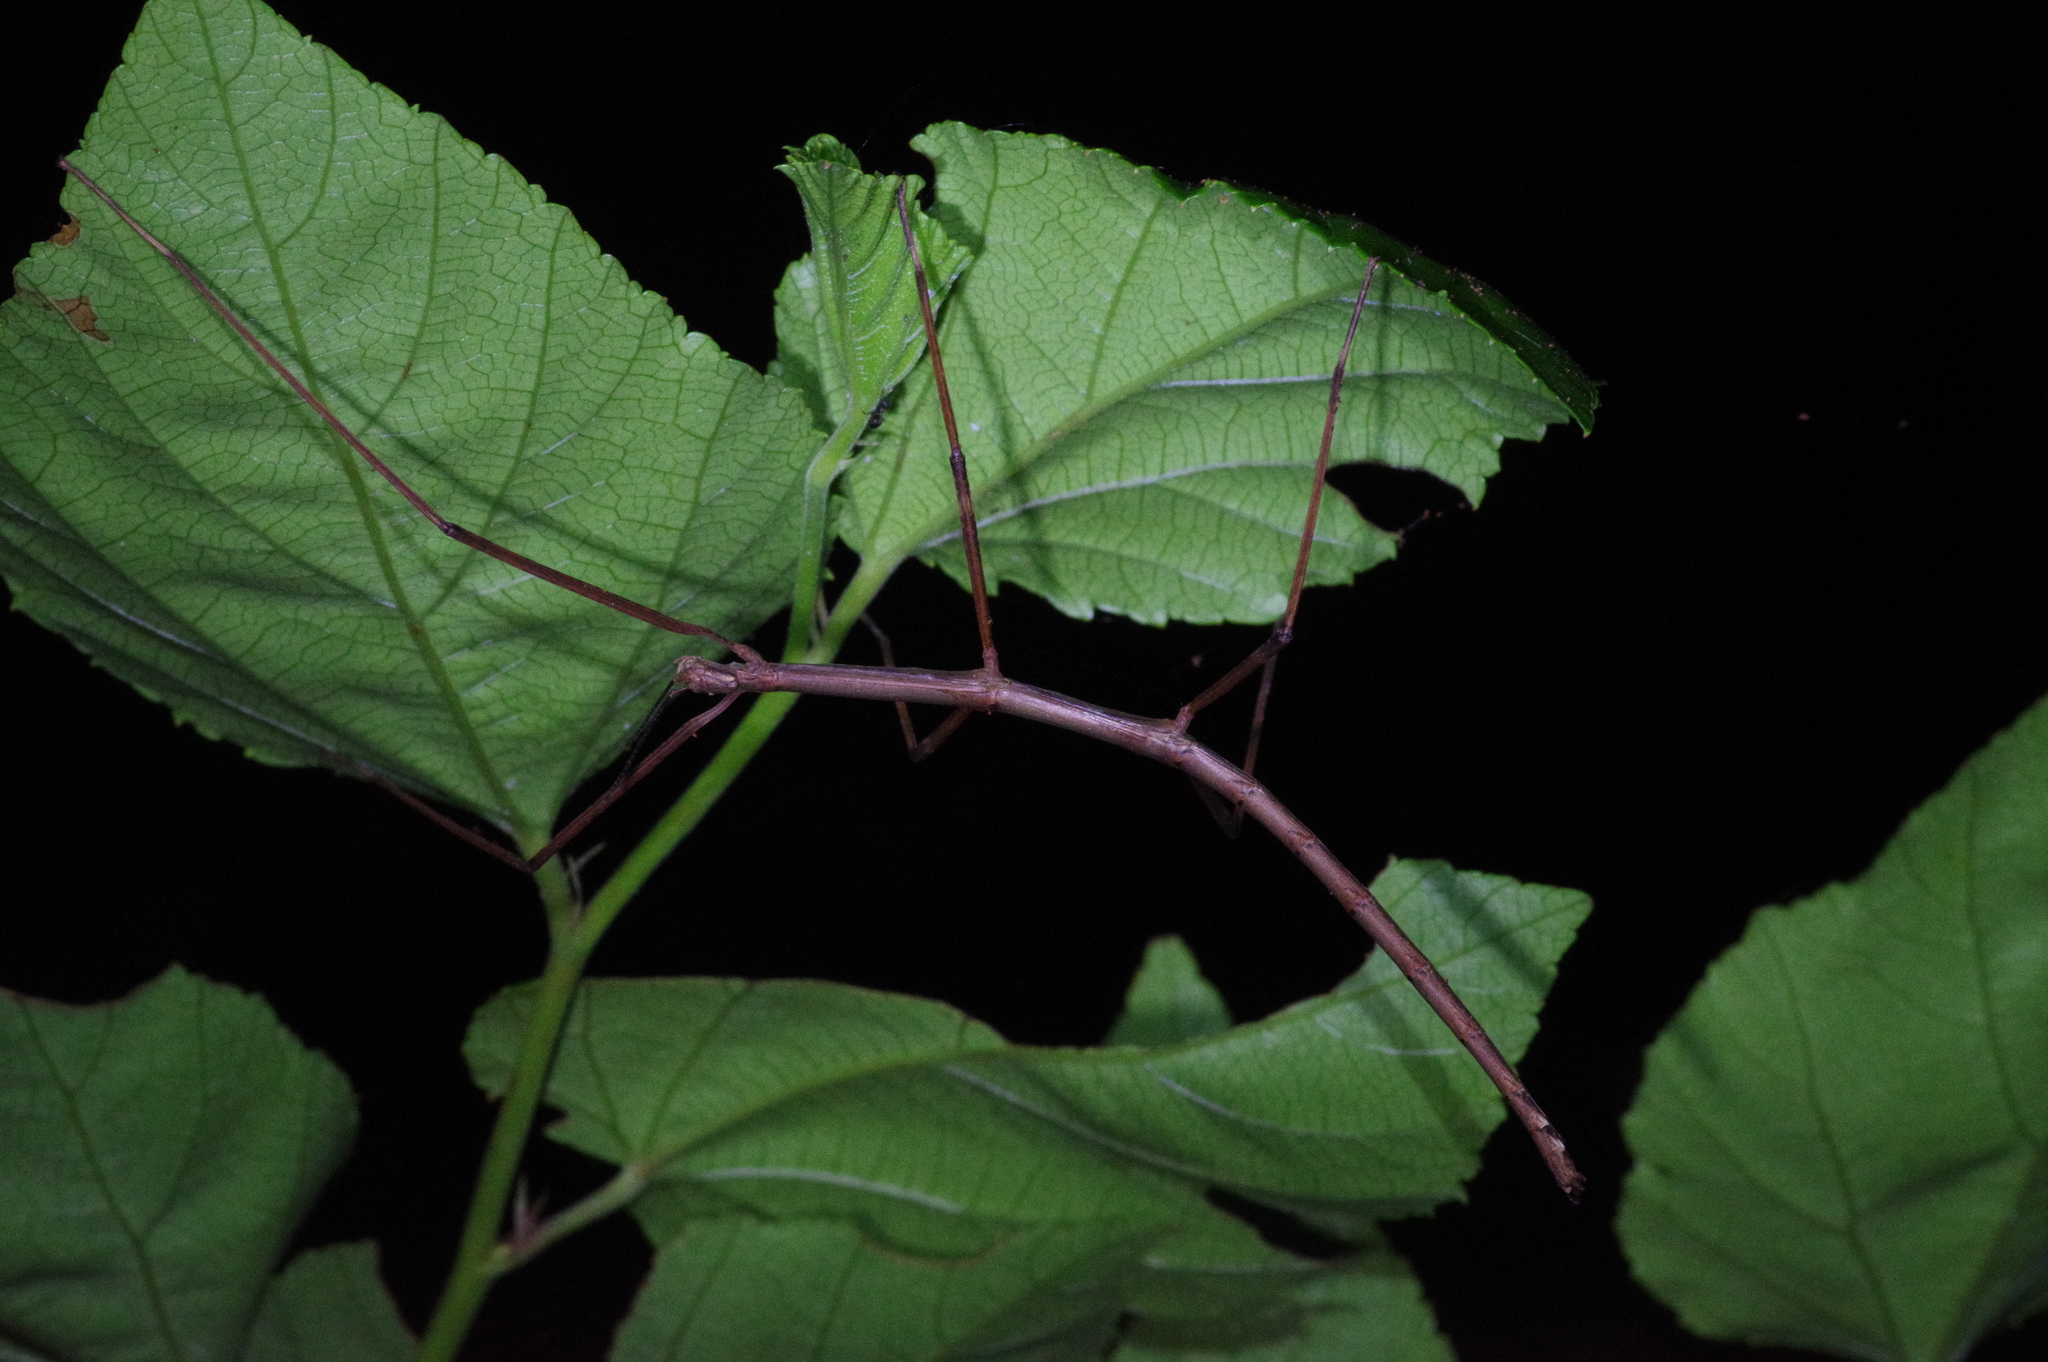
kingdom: Animalia
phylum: Arthropoda
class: Insecta
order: Phasmida
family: Phasmatidae
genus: Entoria
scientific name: Entoria miyakoensis
